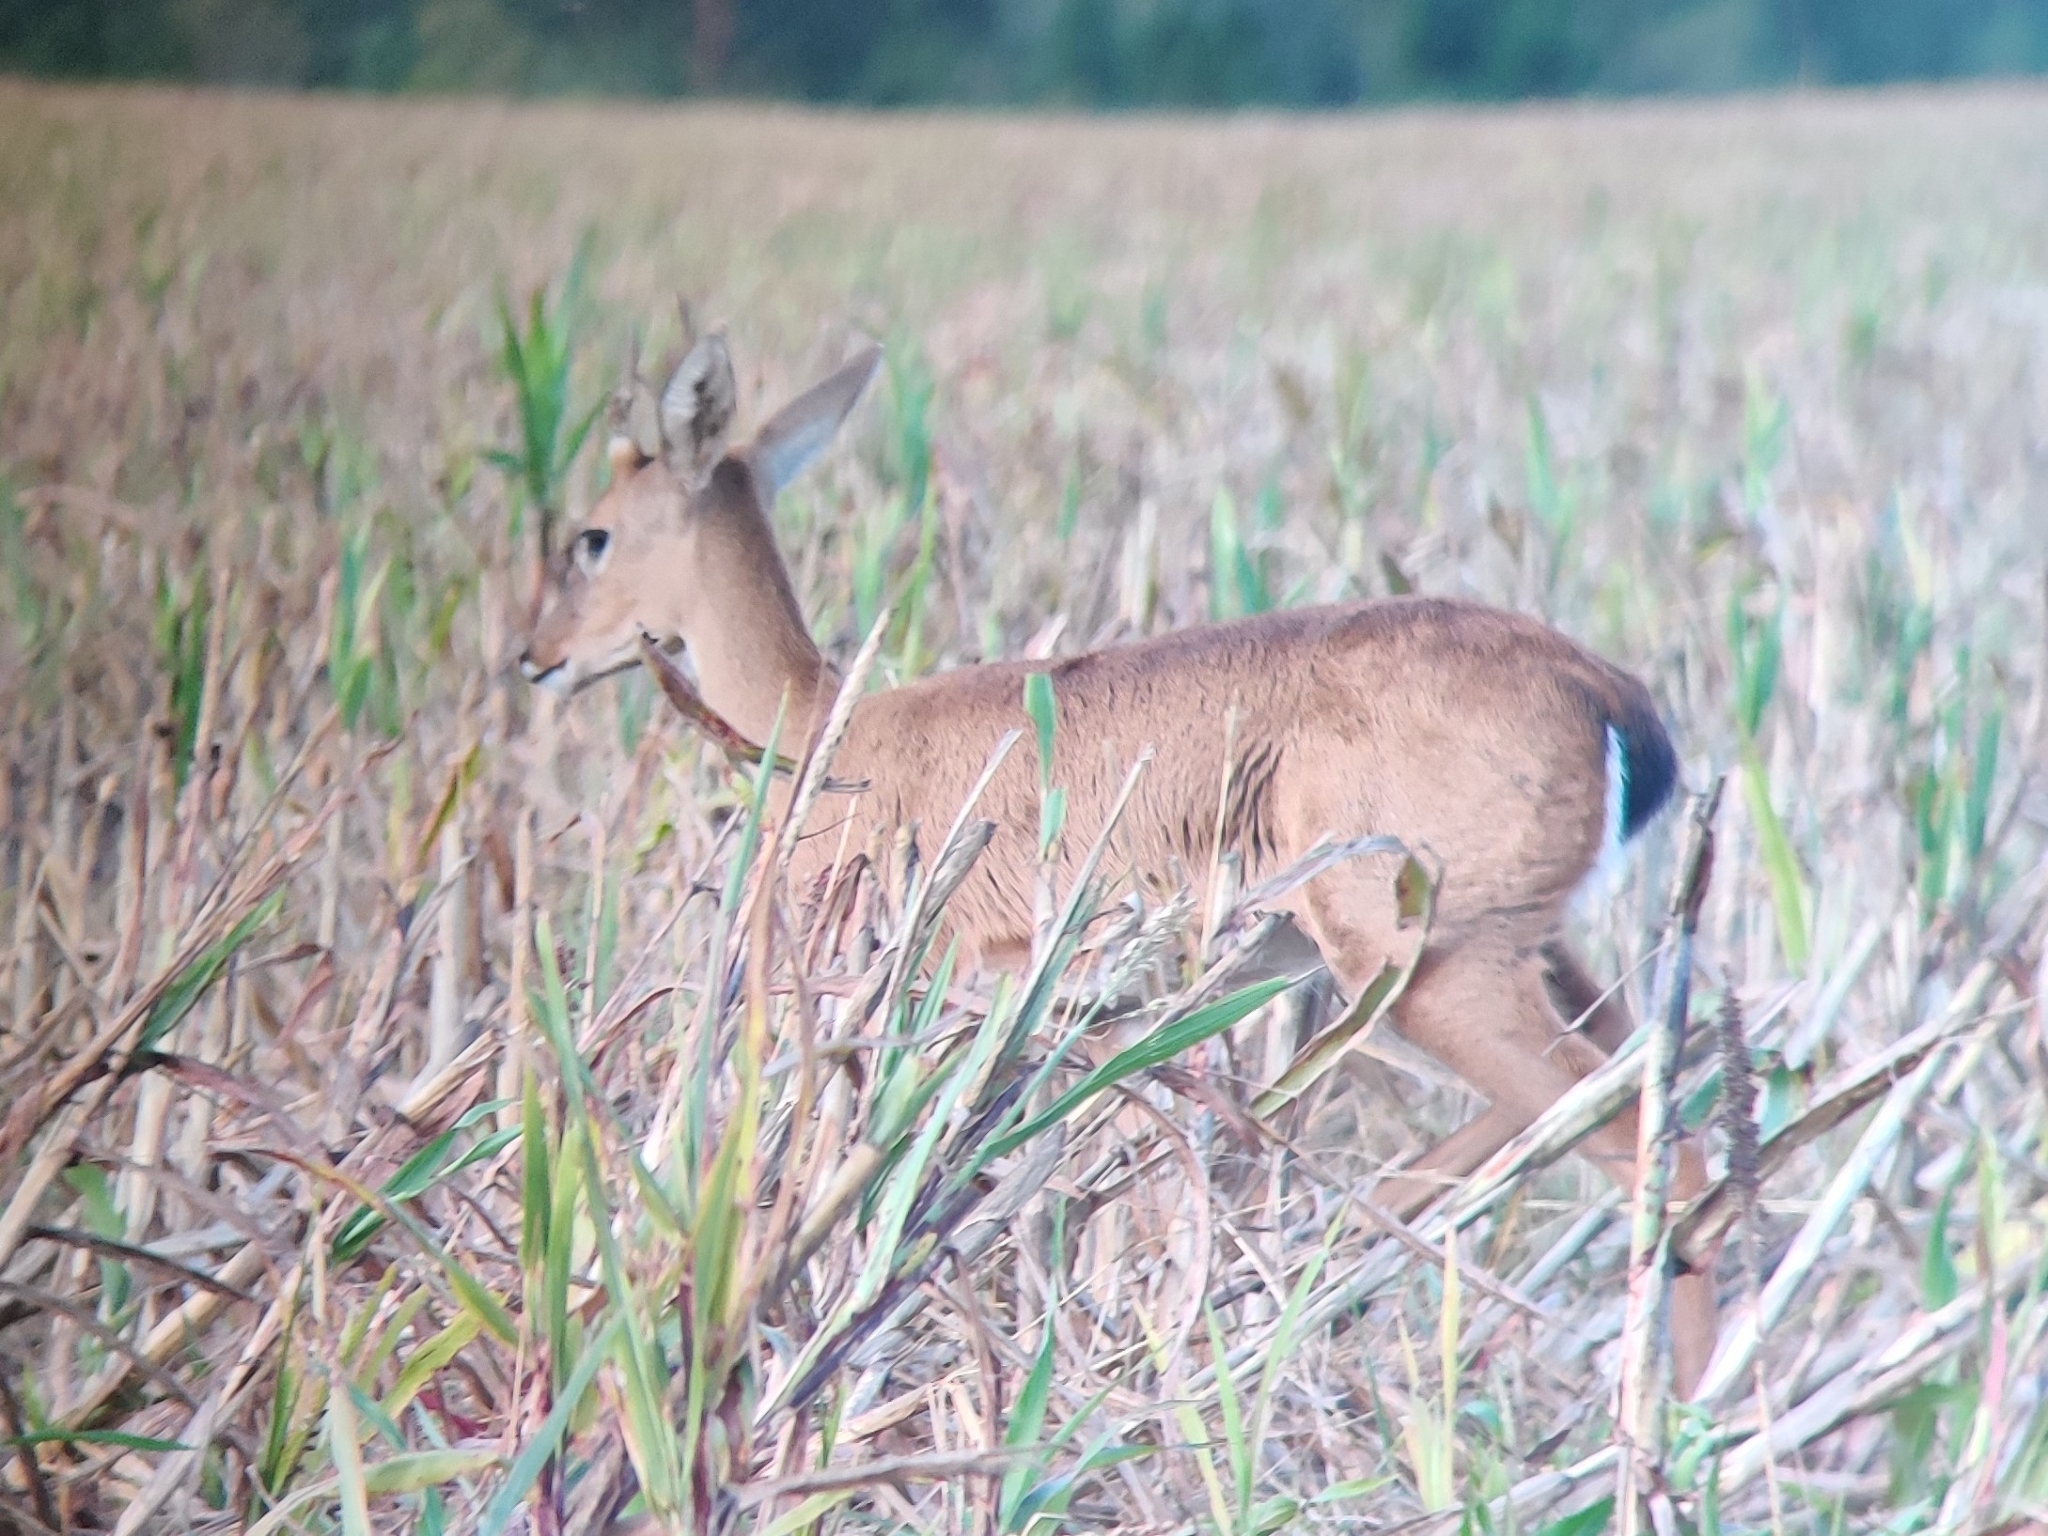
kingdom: Animalia
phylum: Chordata
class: Mammalia
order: Artiodactyla
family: Cervidae
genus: Ozotoceros
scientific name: Ozotoceros bezoarticus
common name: Pampas deer
